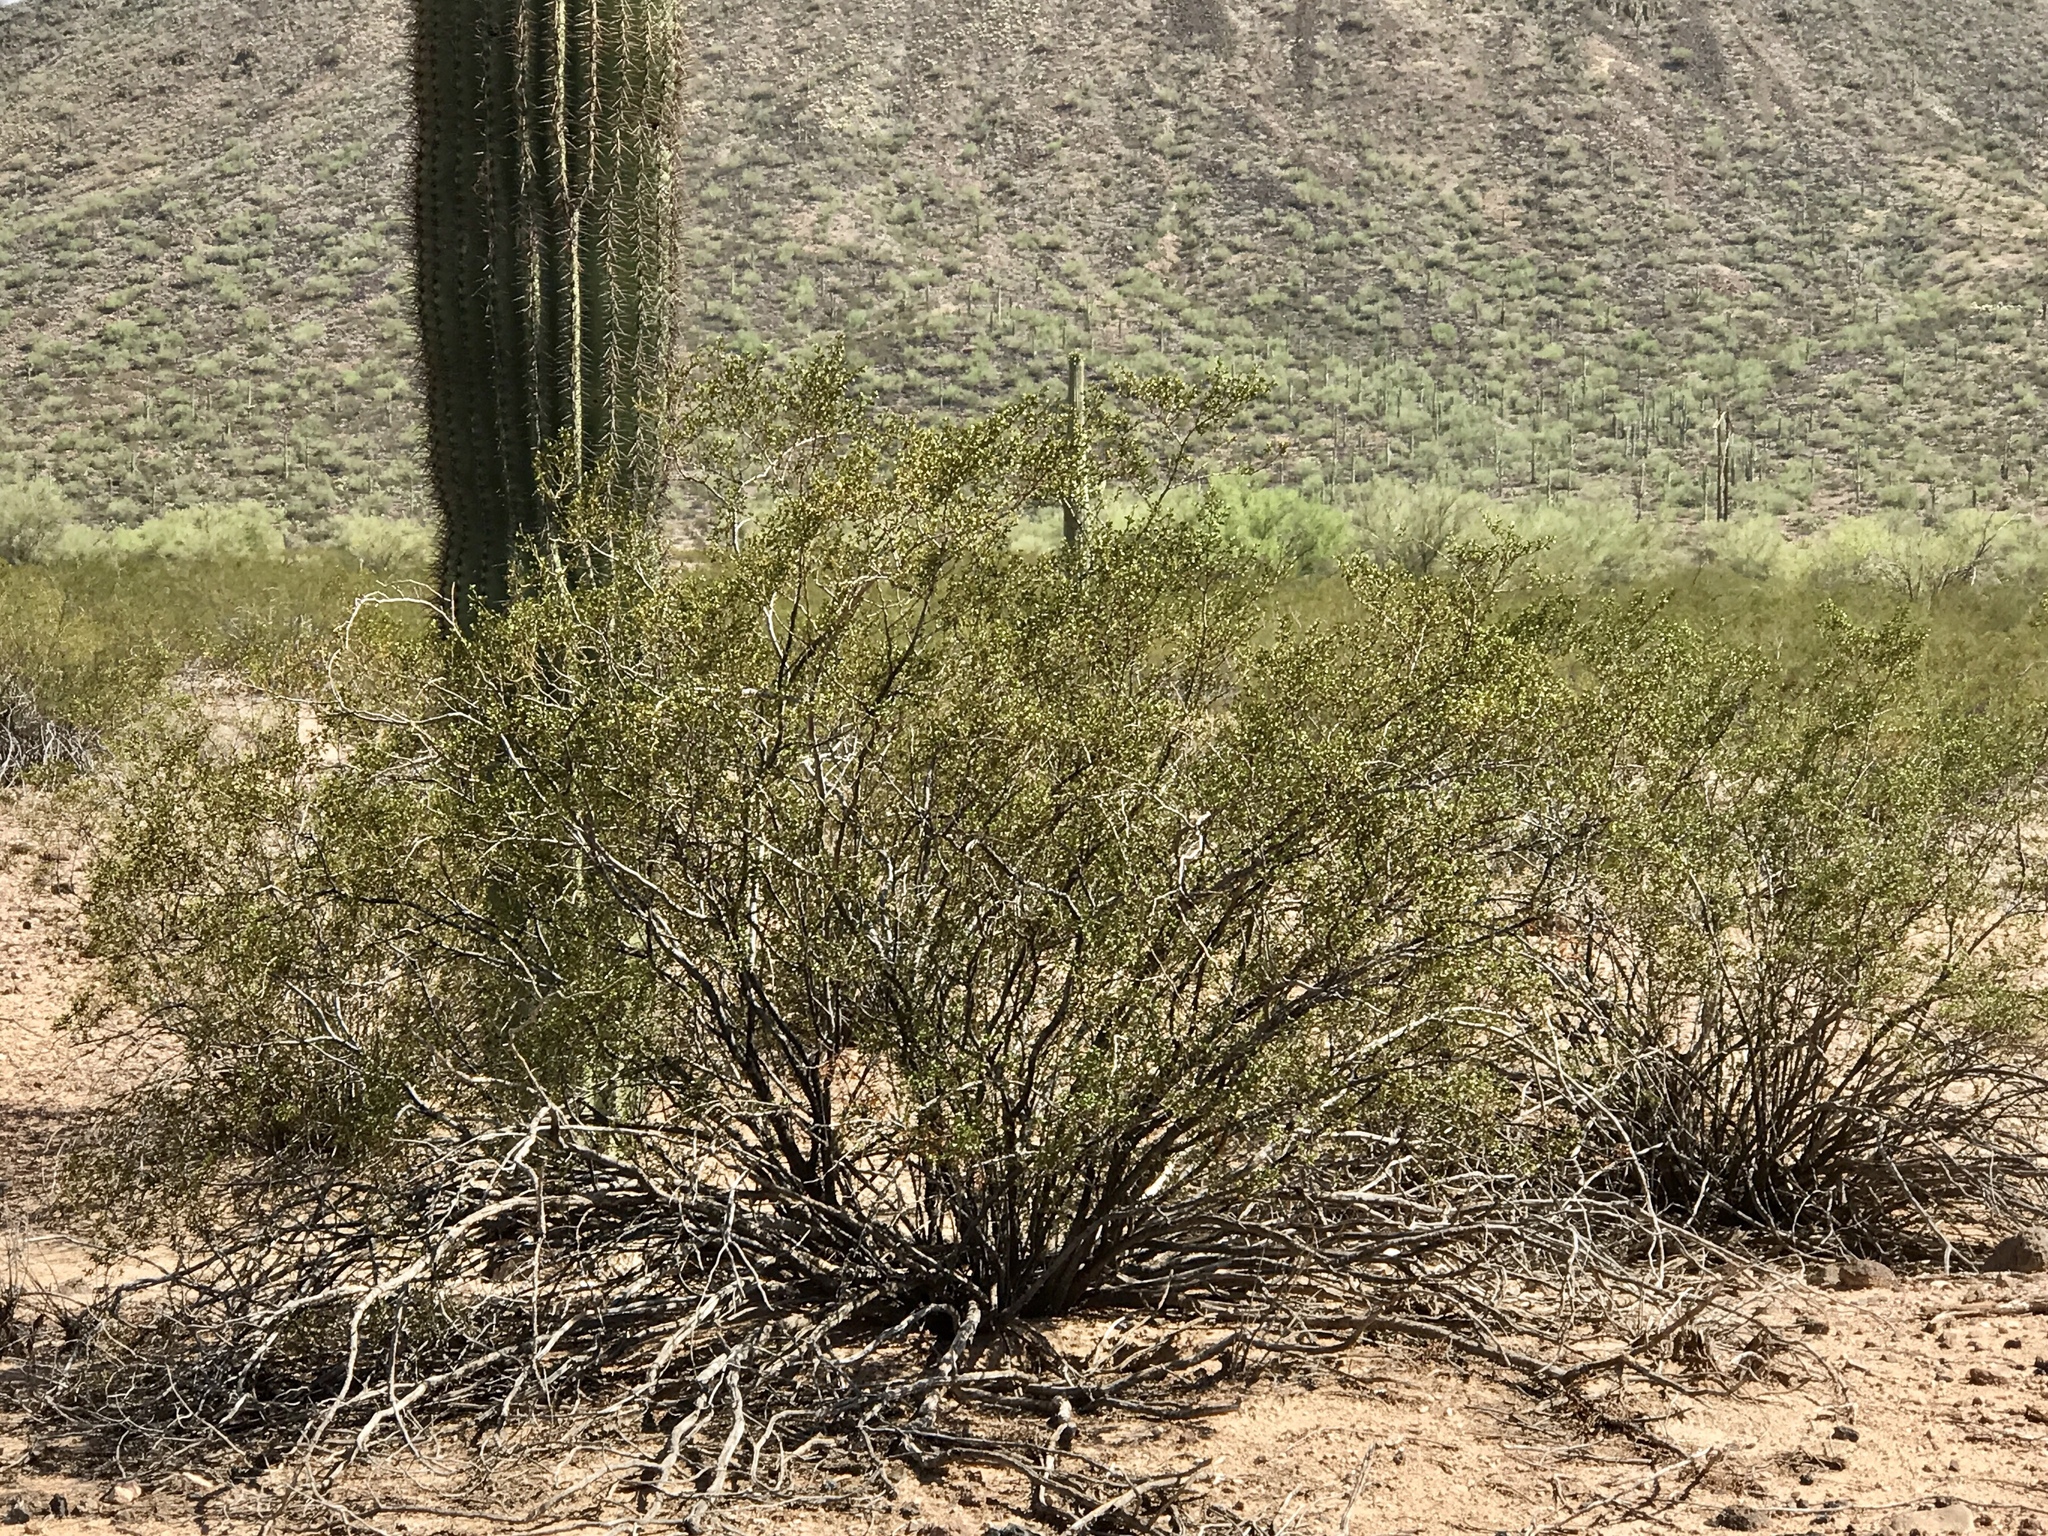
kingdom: Plantae
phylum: Tracheophyta
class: Magnoliopsida
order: Zygophyllales
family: Zygophyllaceae
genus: Larrea
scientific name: Larrea tridentata
